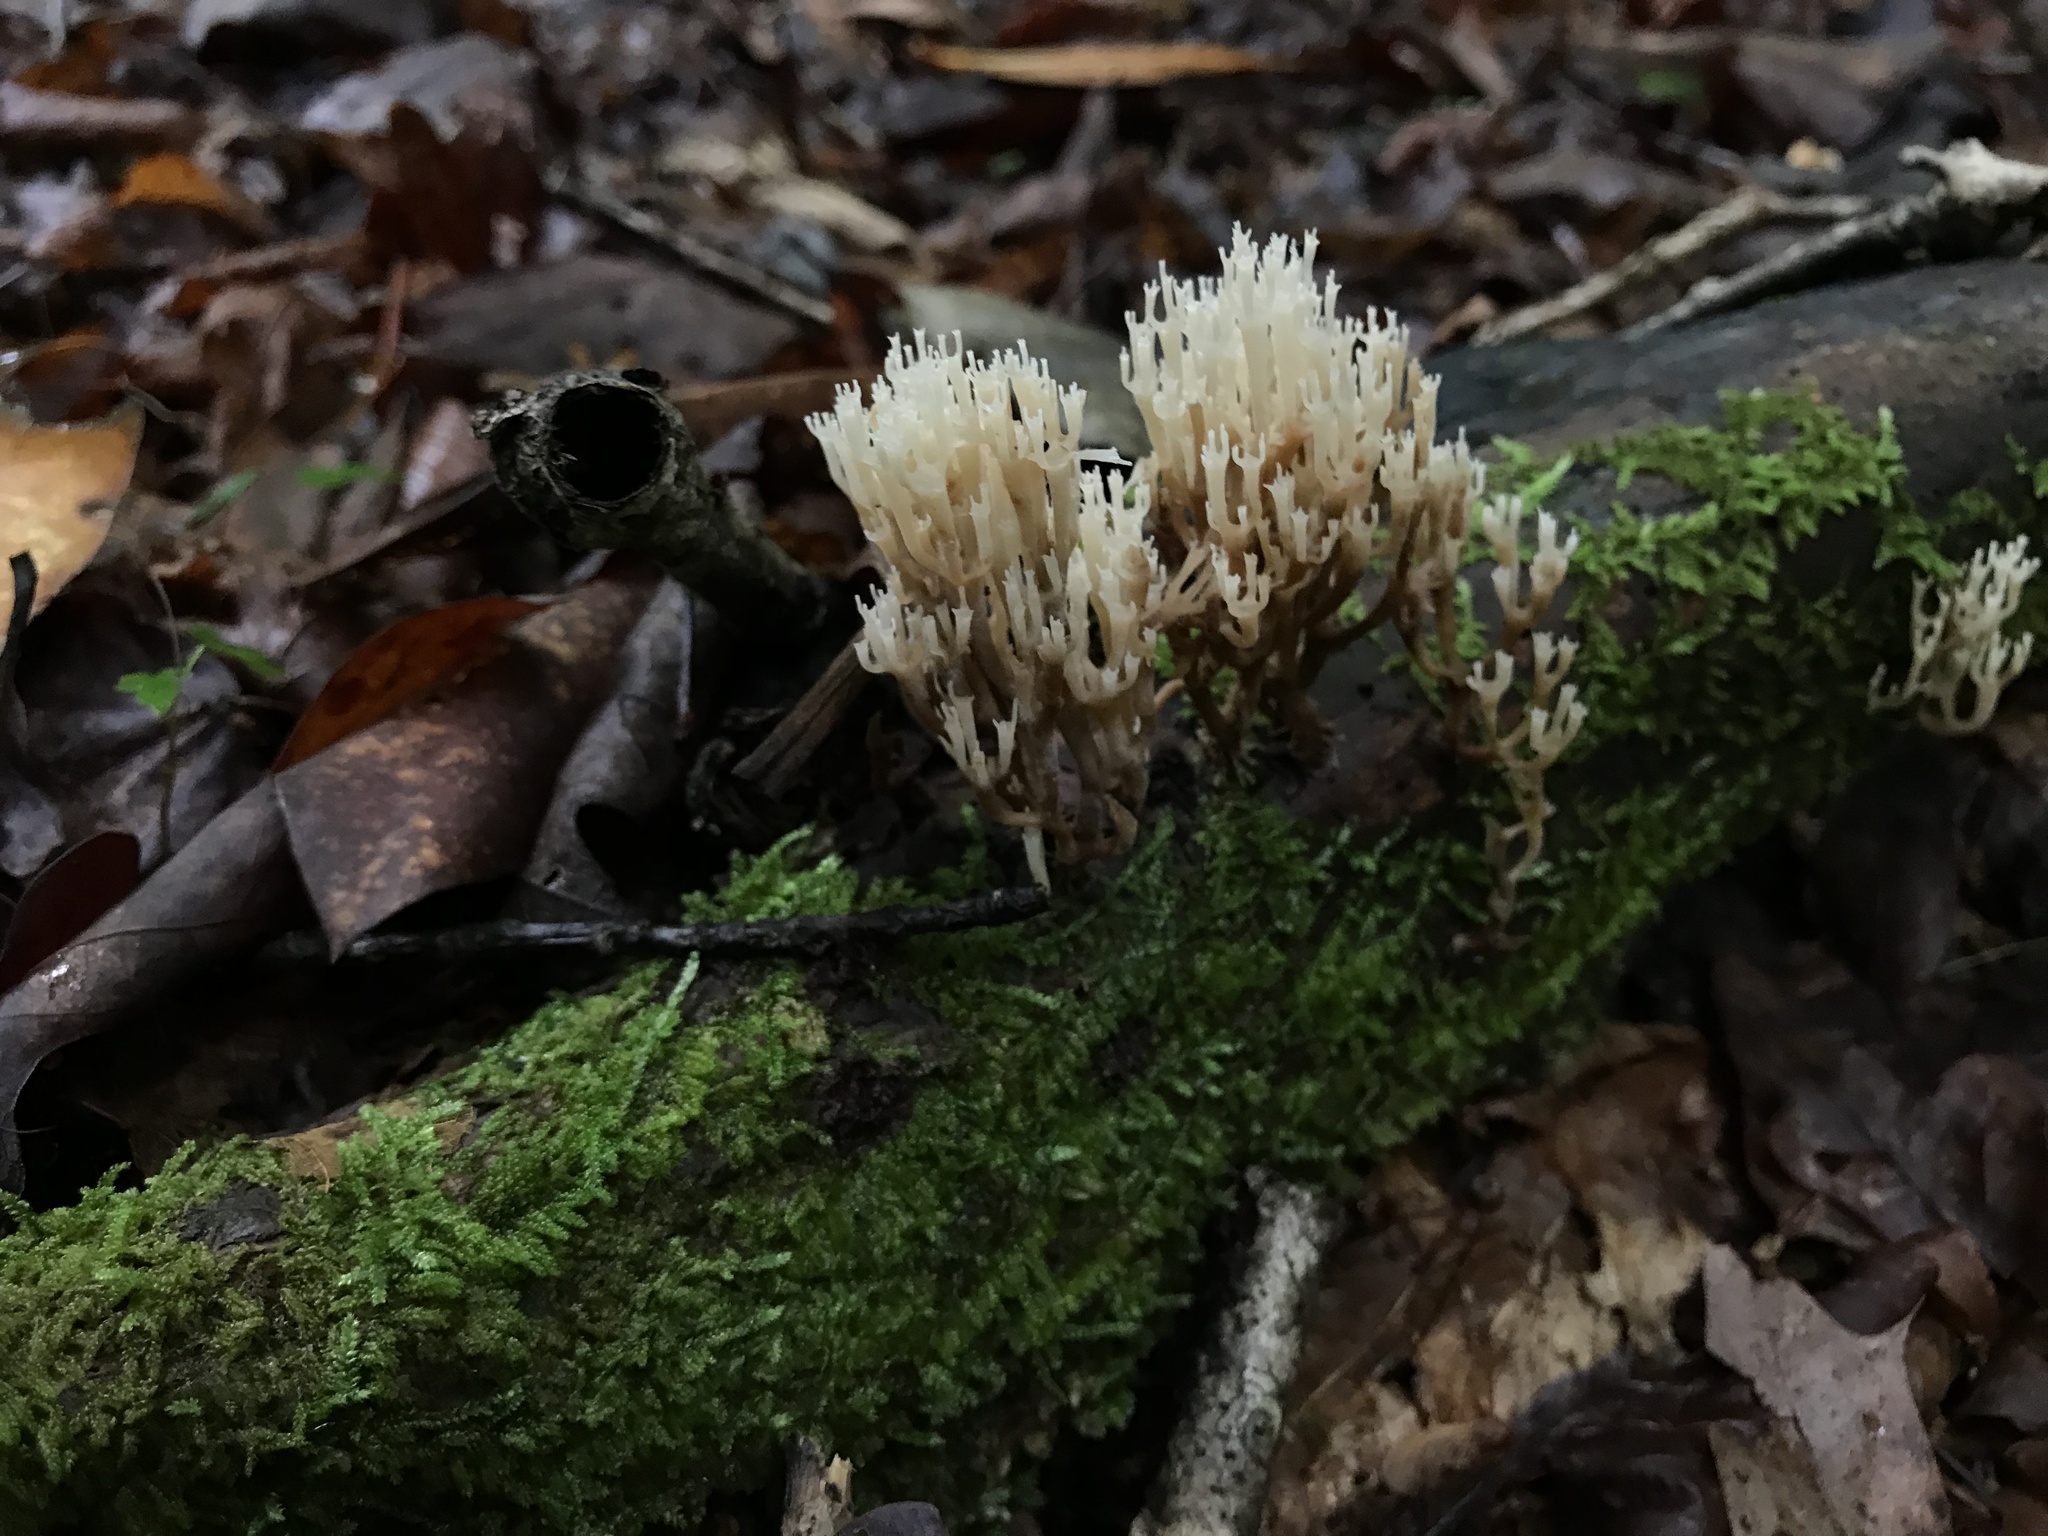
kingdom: Fungi
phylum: Basidiomycota
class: Agaricomycetes
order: Russulales
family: Auriscalpiaceae
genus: Artomyces
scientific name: Artomyces pyxidatus
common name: Crown-tipped coral fungus
